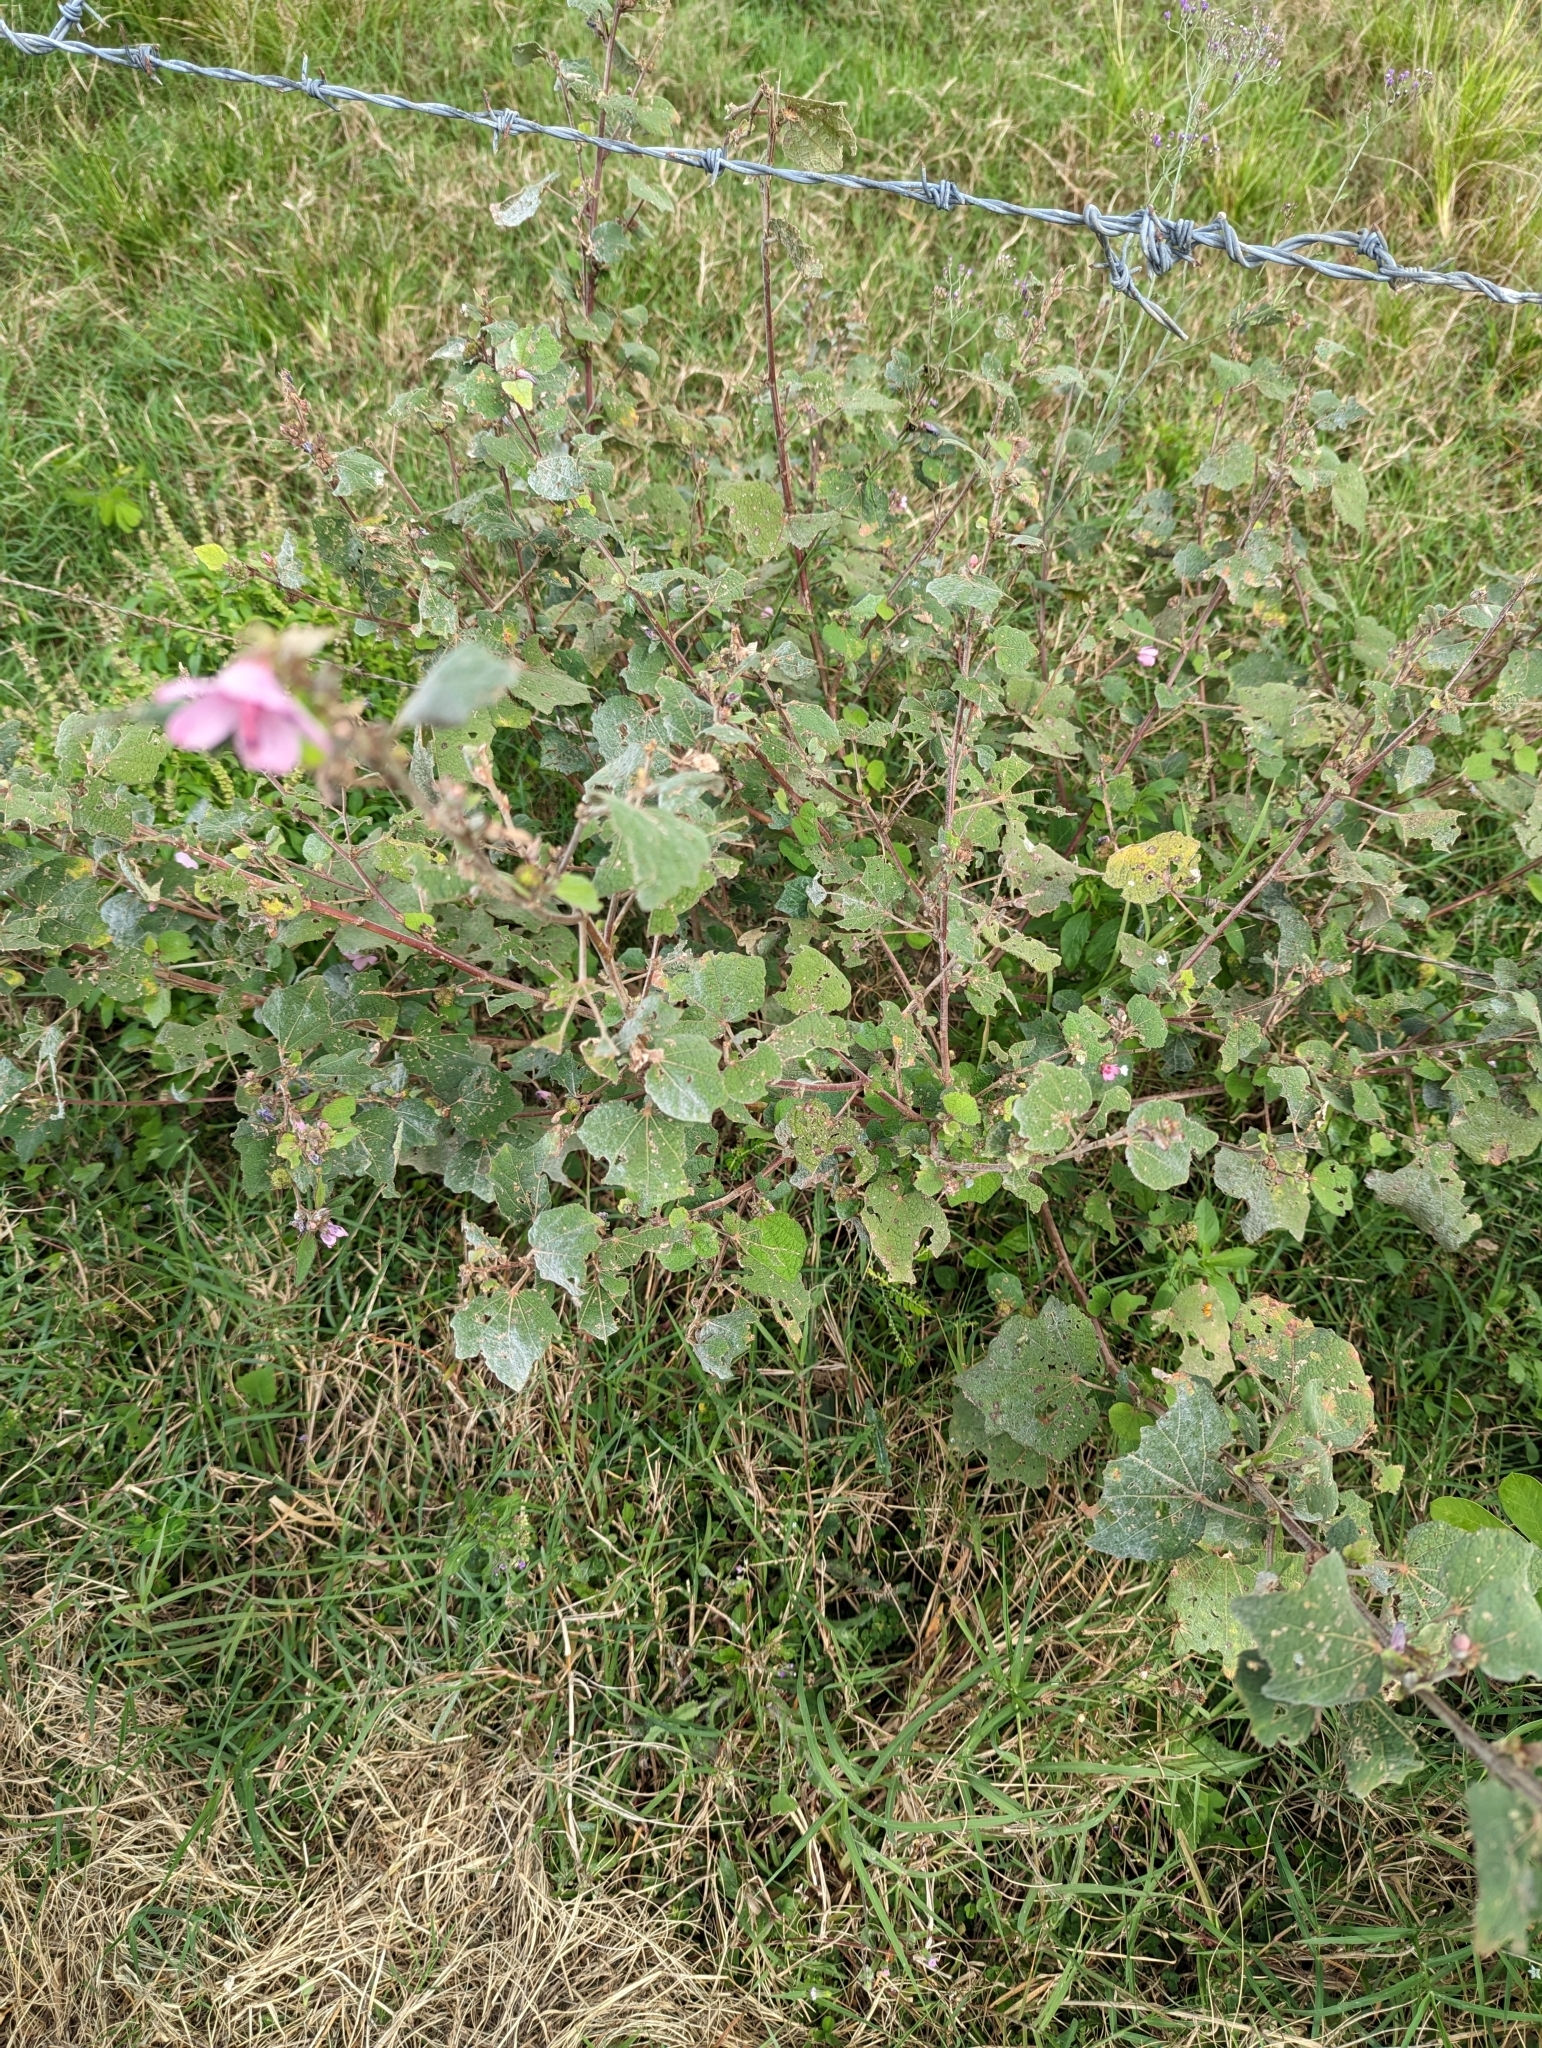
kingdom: Plantae
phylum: Tracheophyta
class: Magnoliopsida
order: Malvales
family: Malvaceae
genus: Urena
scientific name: Urena lobata
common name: Caesarweed
